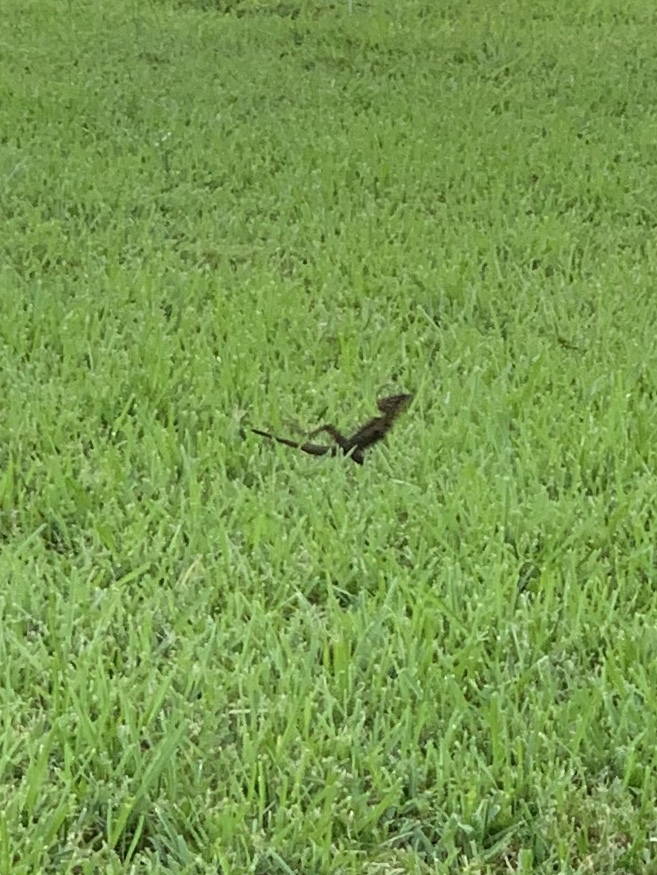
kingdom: Animalia
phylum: Chordata
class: Squamata
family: Corytophanidae
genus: Basiliscus
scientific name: Basiliscus vittatus
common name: Brown basilisk
